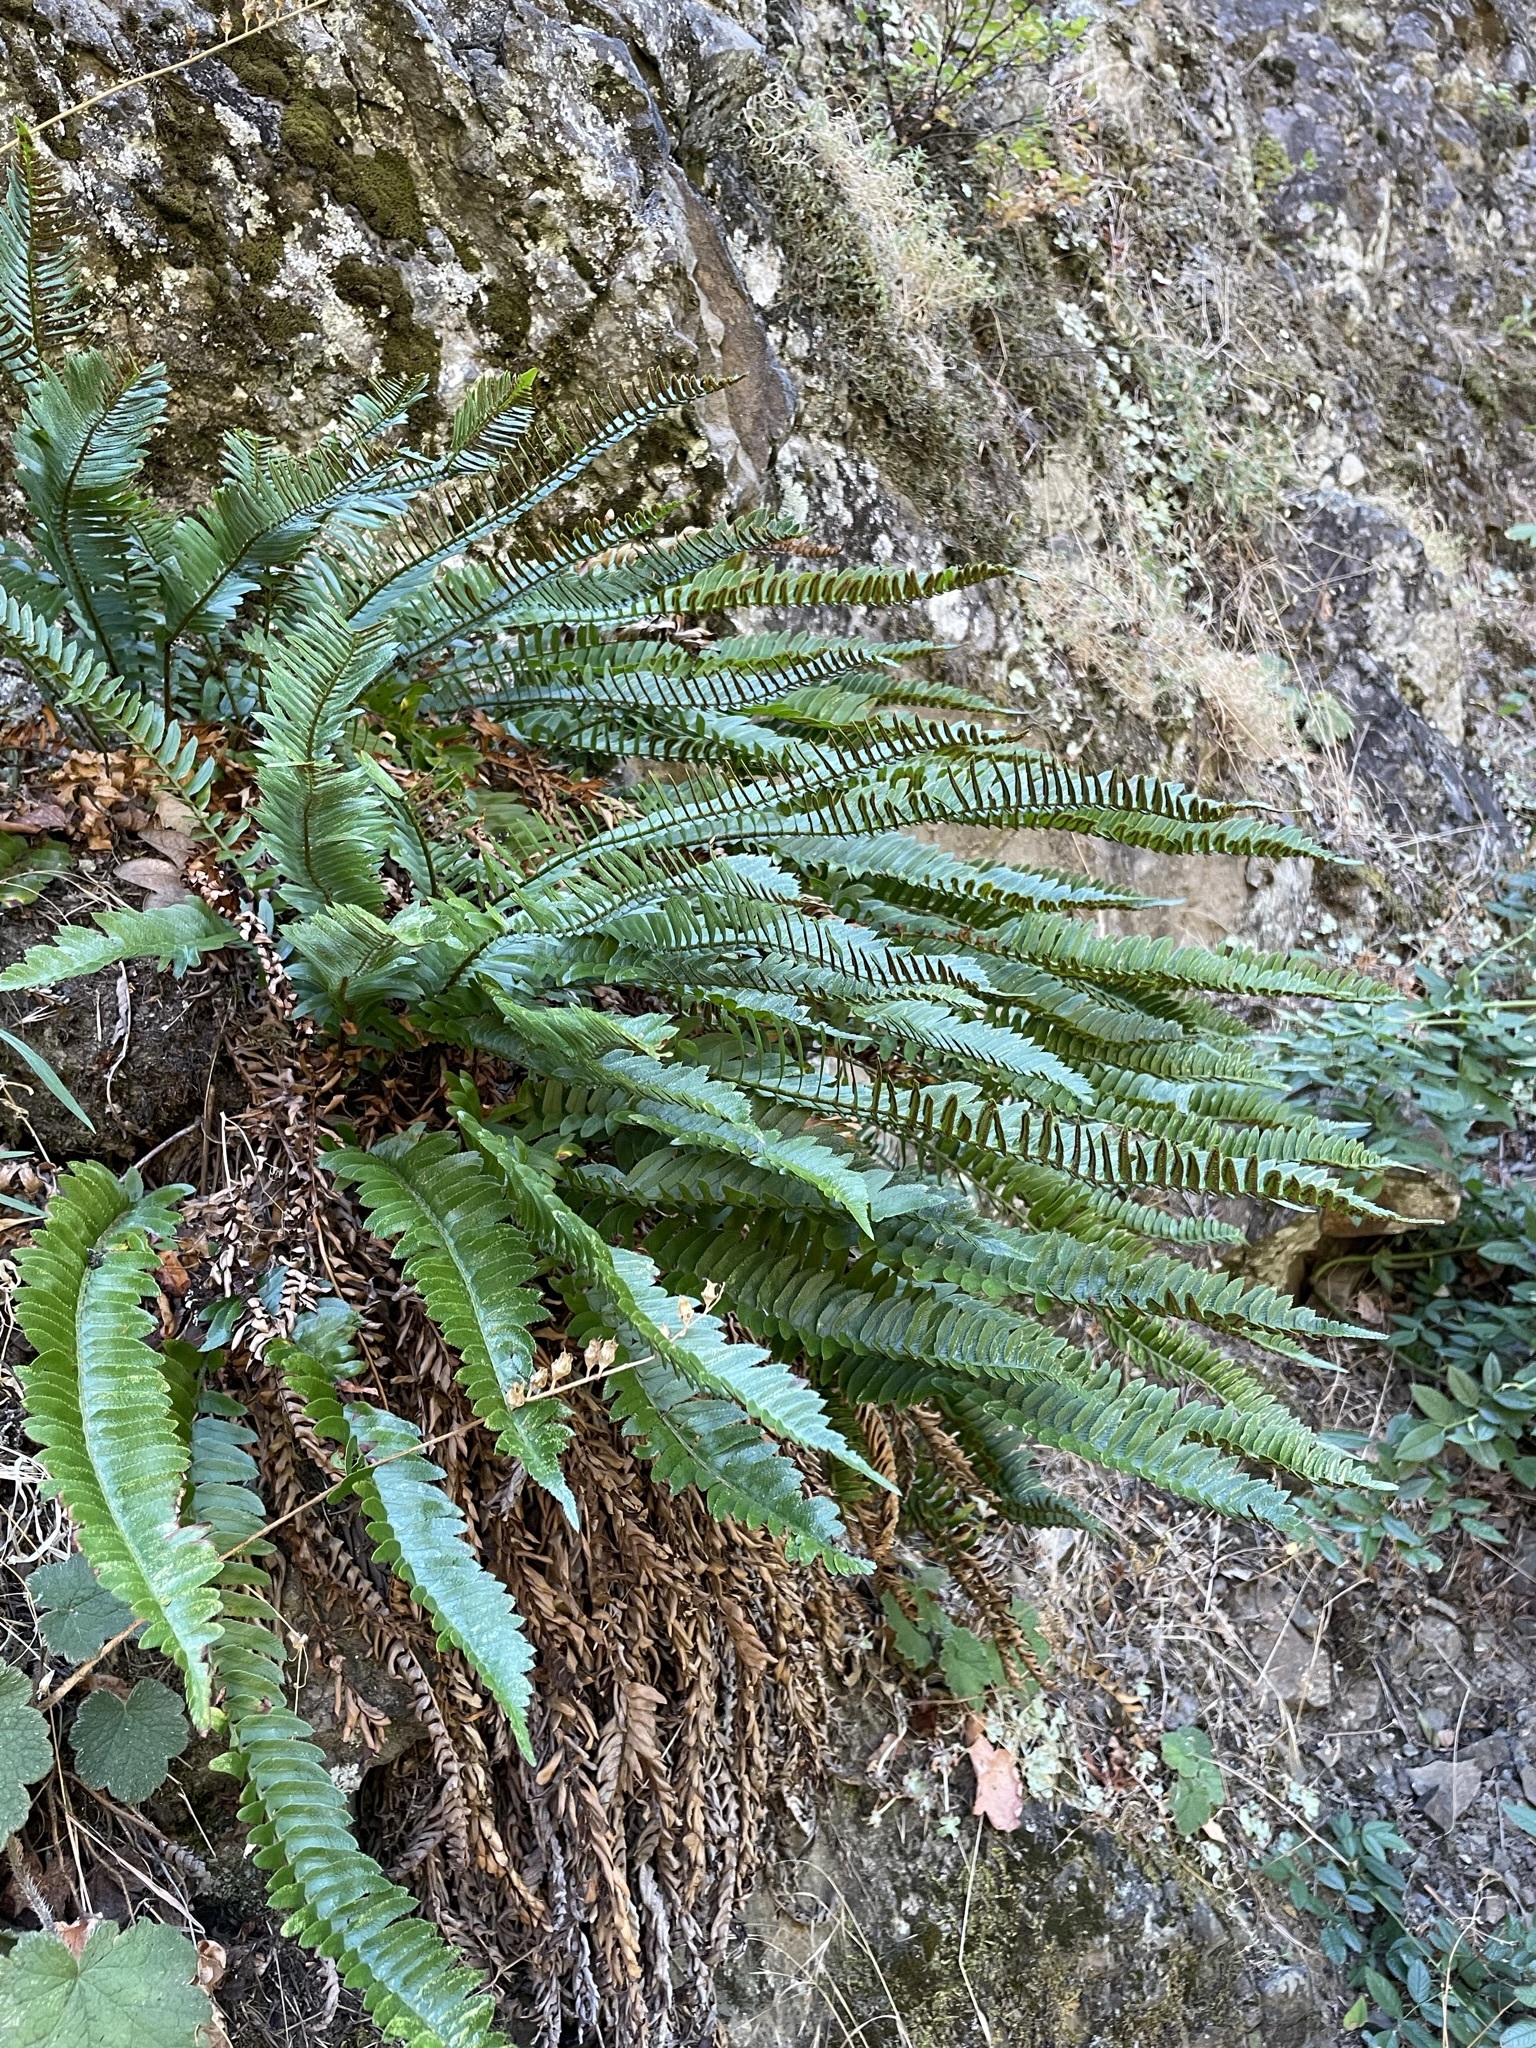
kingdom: Plantae
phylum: Tracheophyta
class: Polypodiopsida
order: Polypodiales
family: Dryopteridaceae
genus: Polystichum
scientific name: Polystichum imbricans
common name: Dwarf western sword fern
